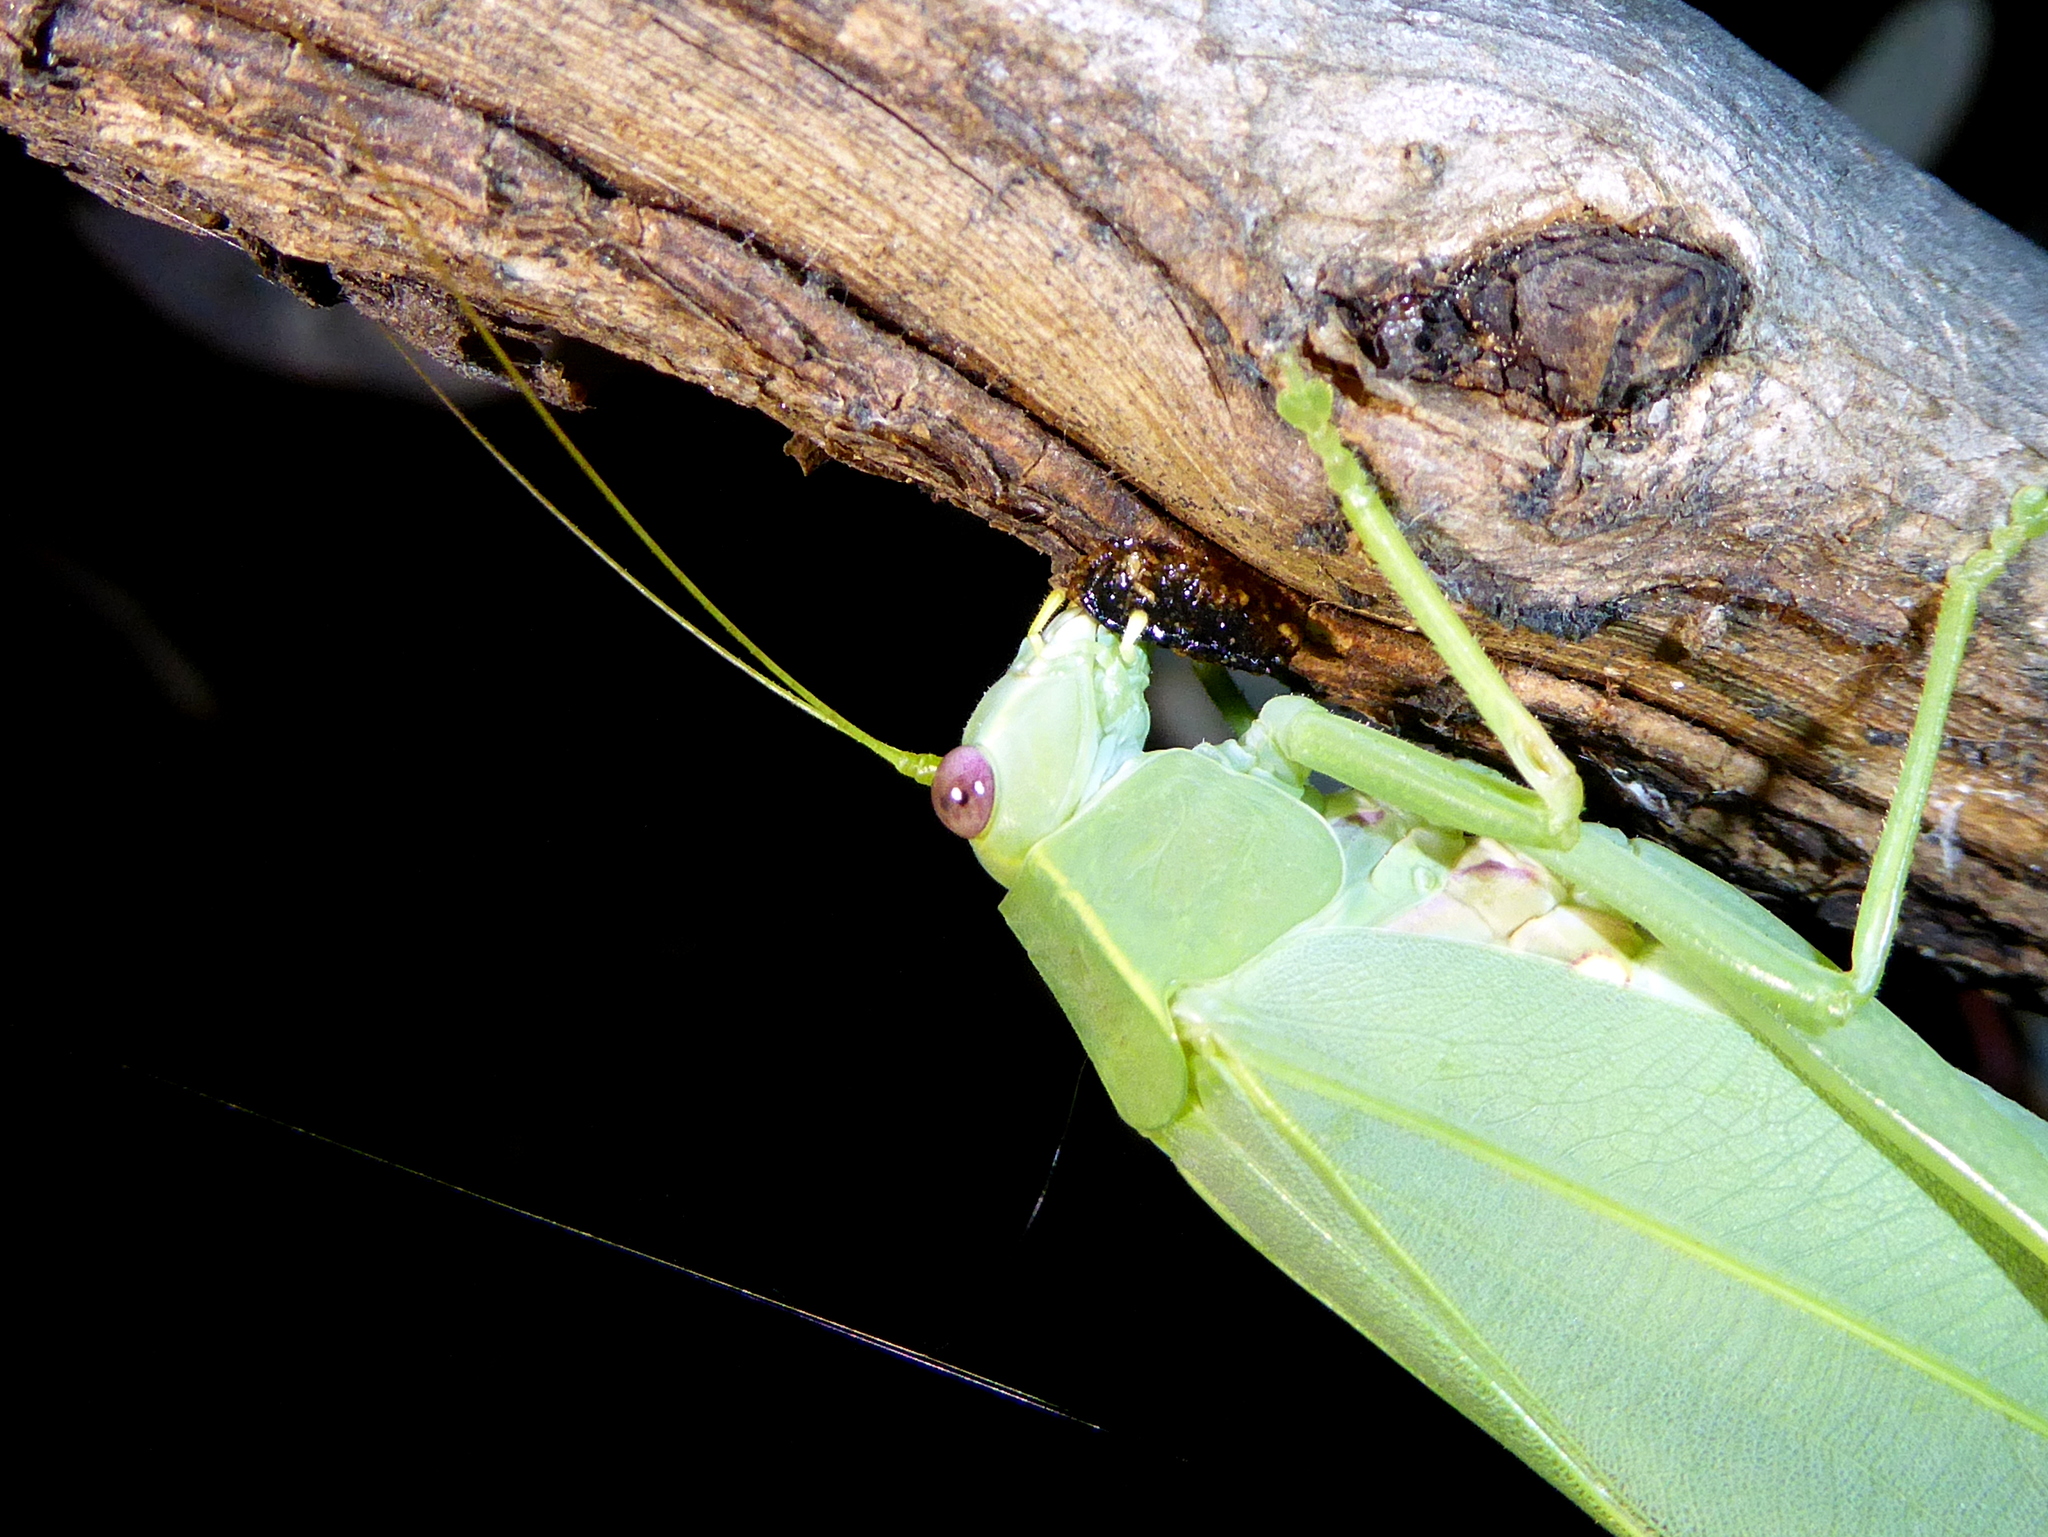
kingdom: Animalia
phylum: Arthropoda
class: Insecta
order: Orthoptera
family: Tettigoniidae
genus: Torbia
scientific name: Torbia viridissima
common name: Non-predaceous gum leaf katydid
